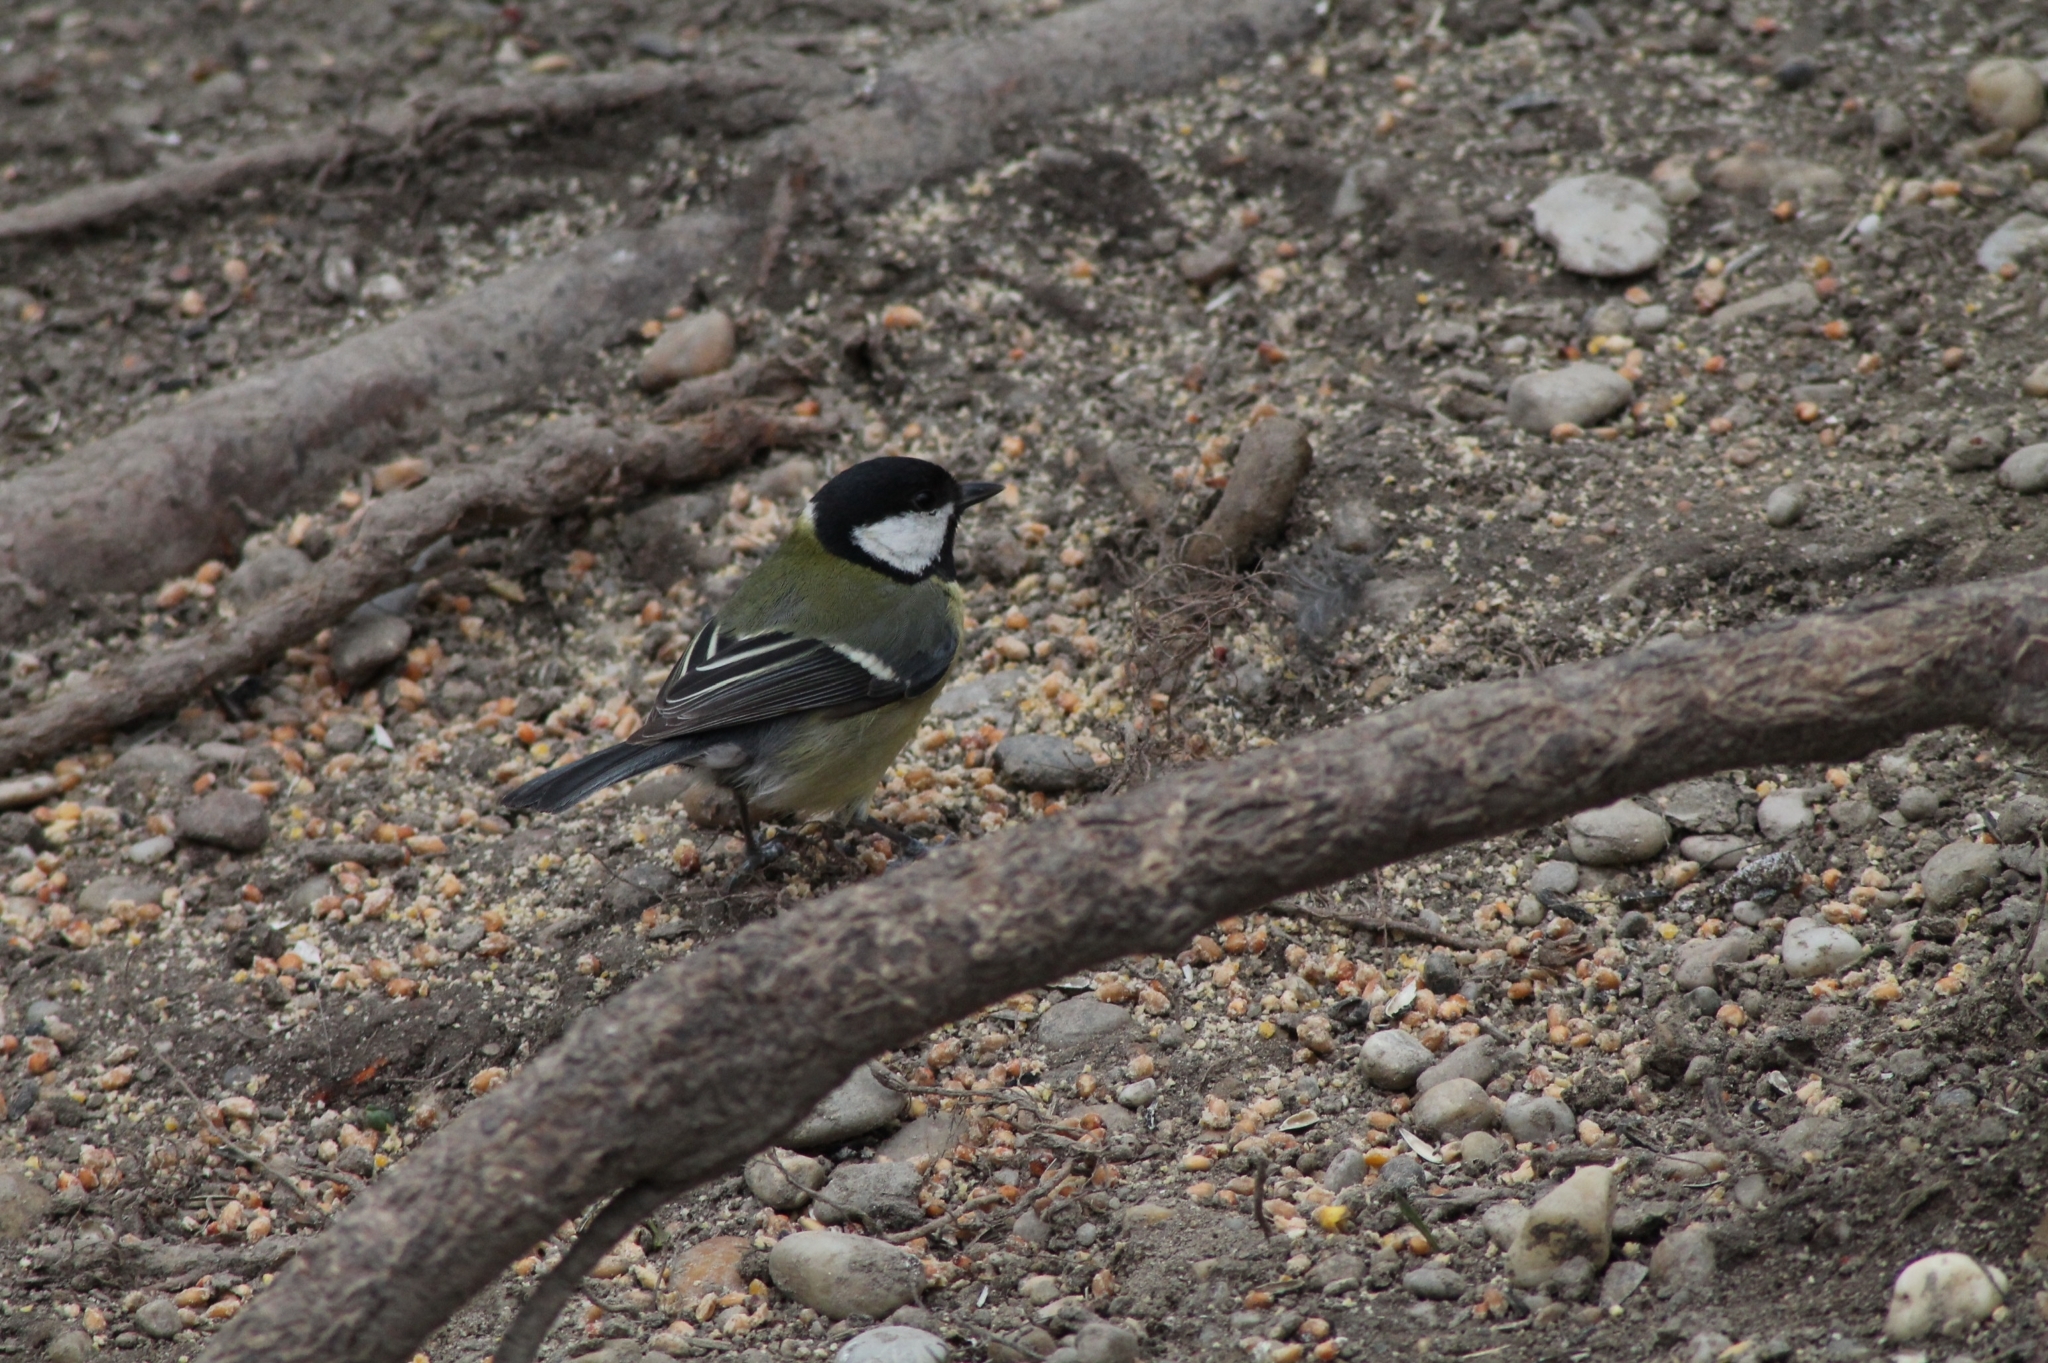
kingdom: Animalia
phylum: Chordata
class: Aves
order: Passeriformes
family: Paridae
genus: Parus
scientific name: Parus major
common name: Great tit
